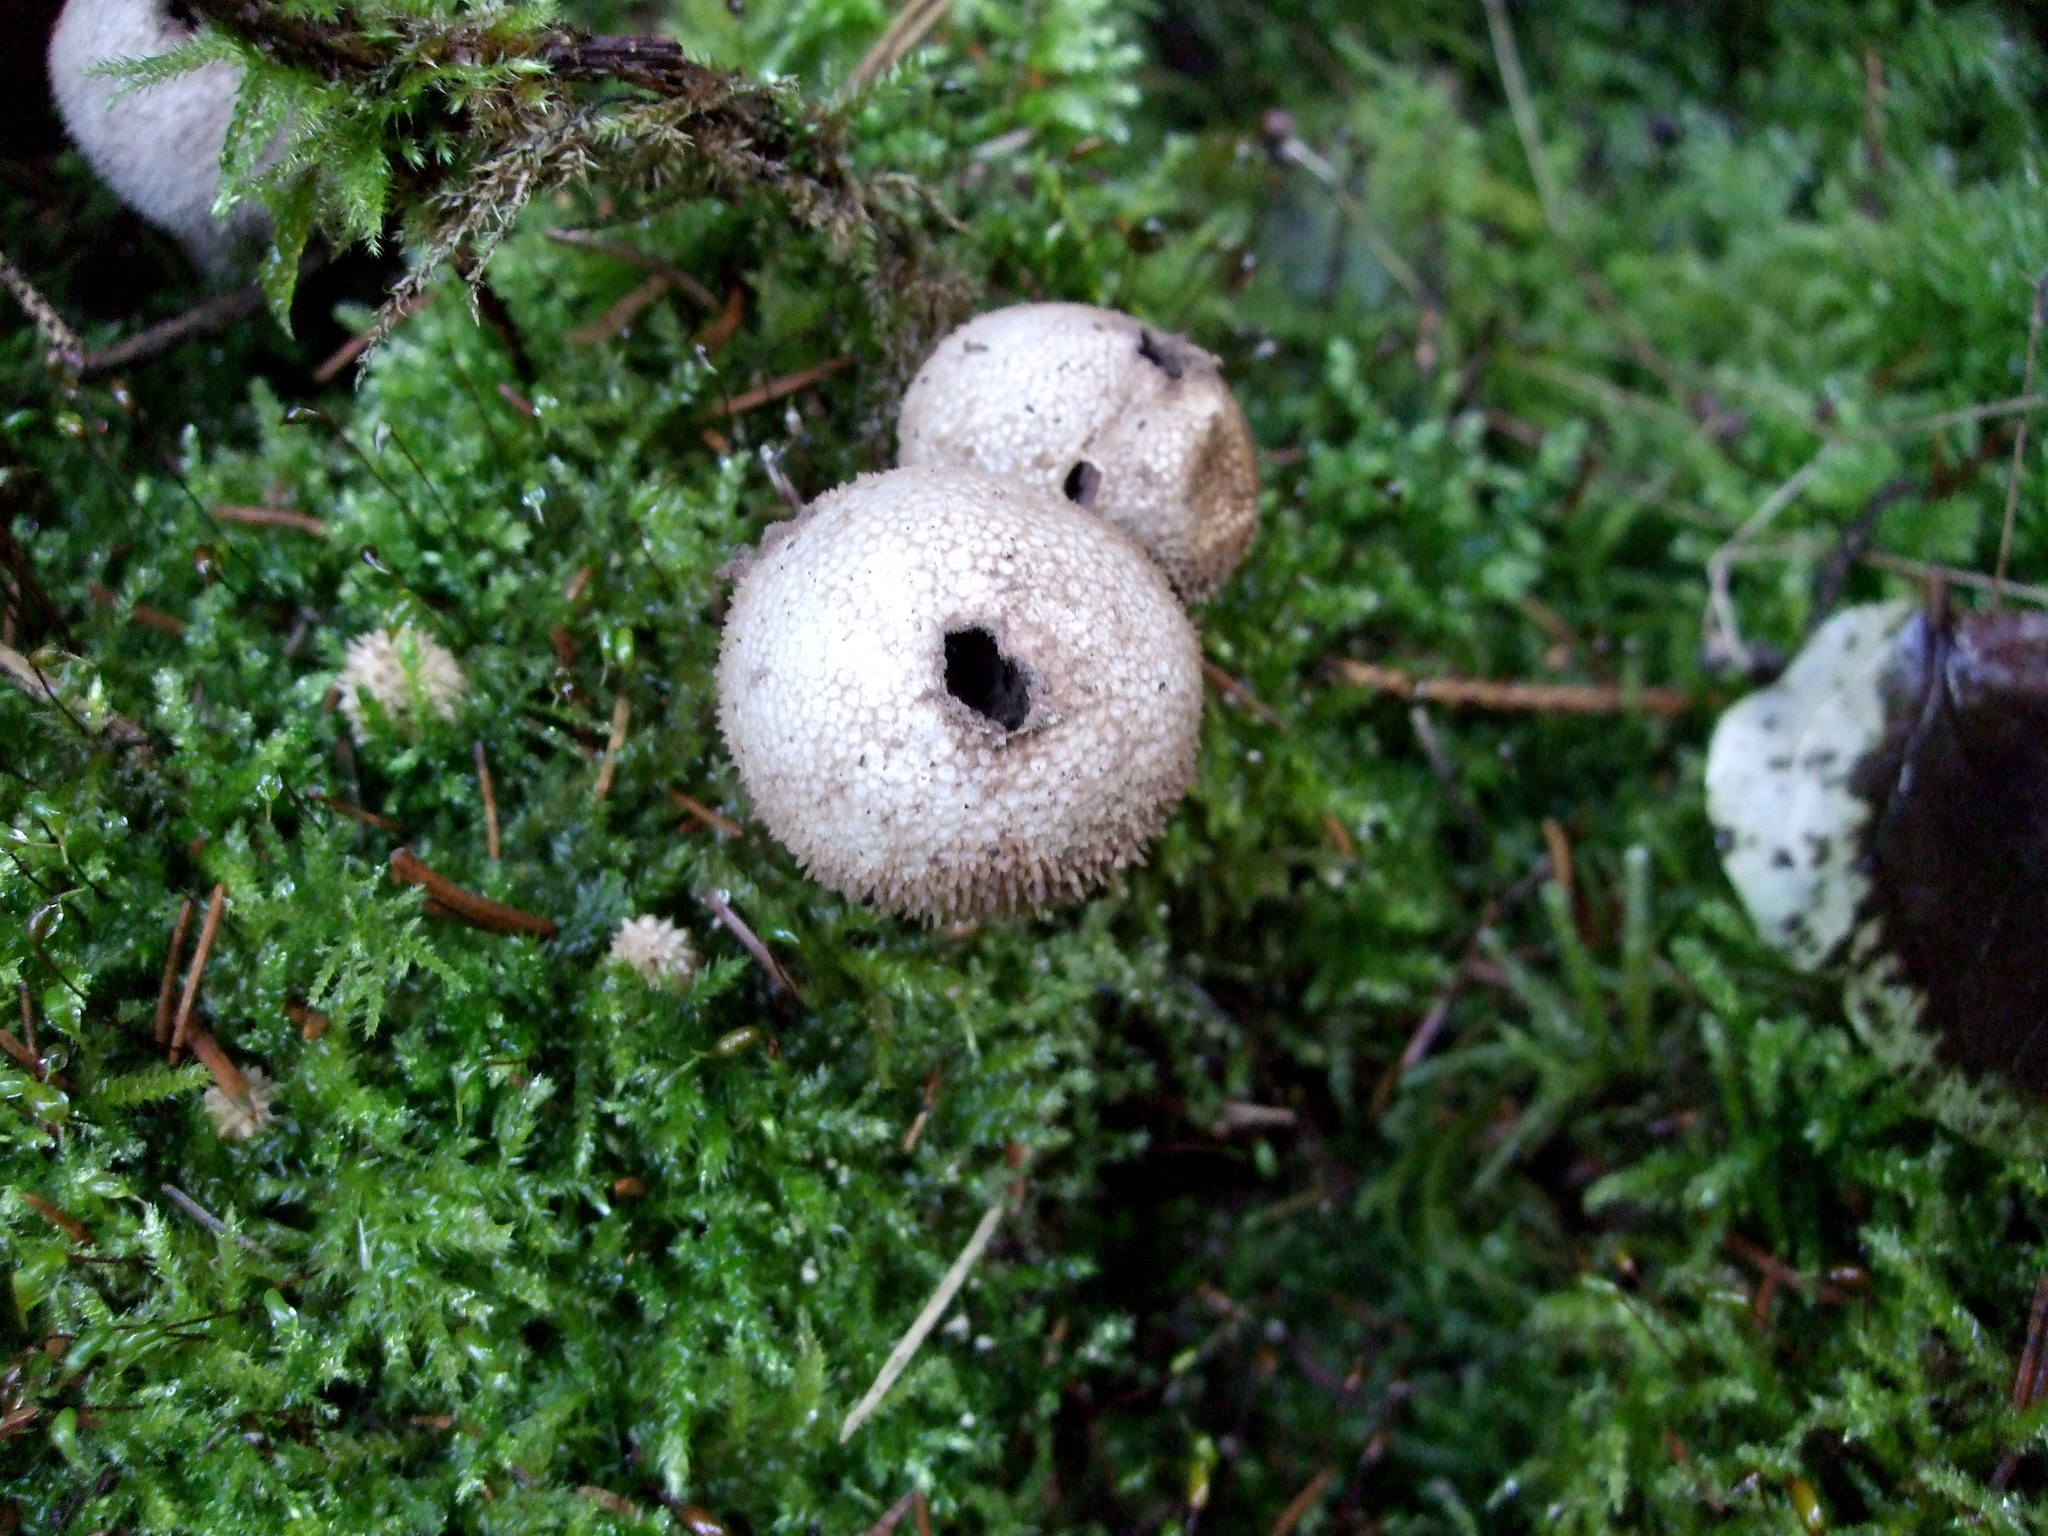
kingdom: Fungi
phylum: Basidiomycota
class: Agaricomycetes
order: Agaricales
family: Lycoperdaceae
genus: Lycoperdon
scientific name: Lycoperdon perlatum
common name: Common puffball
